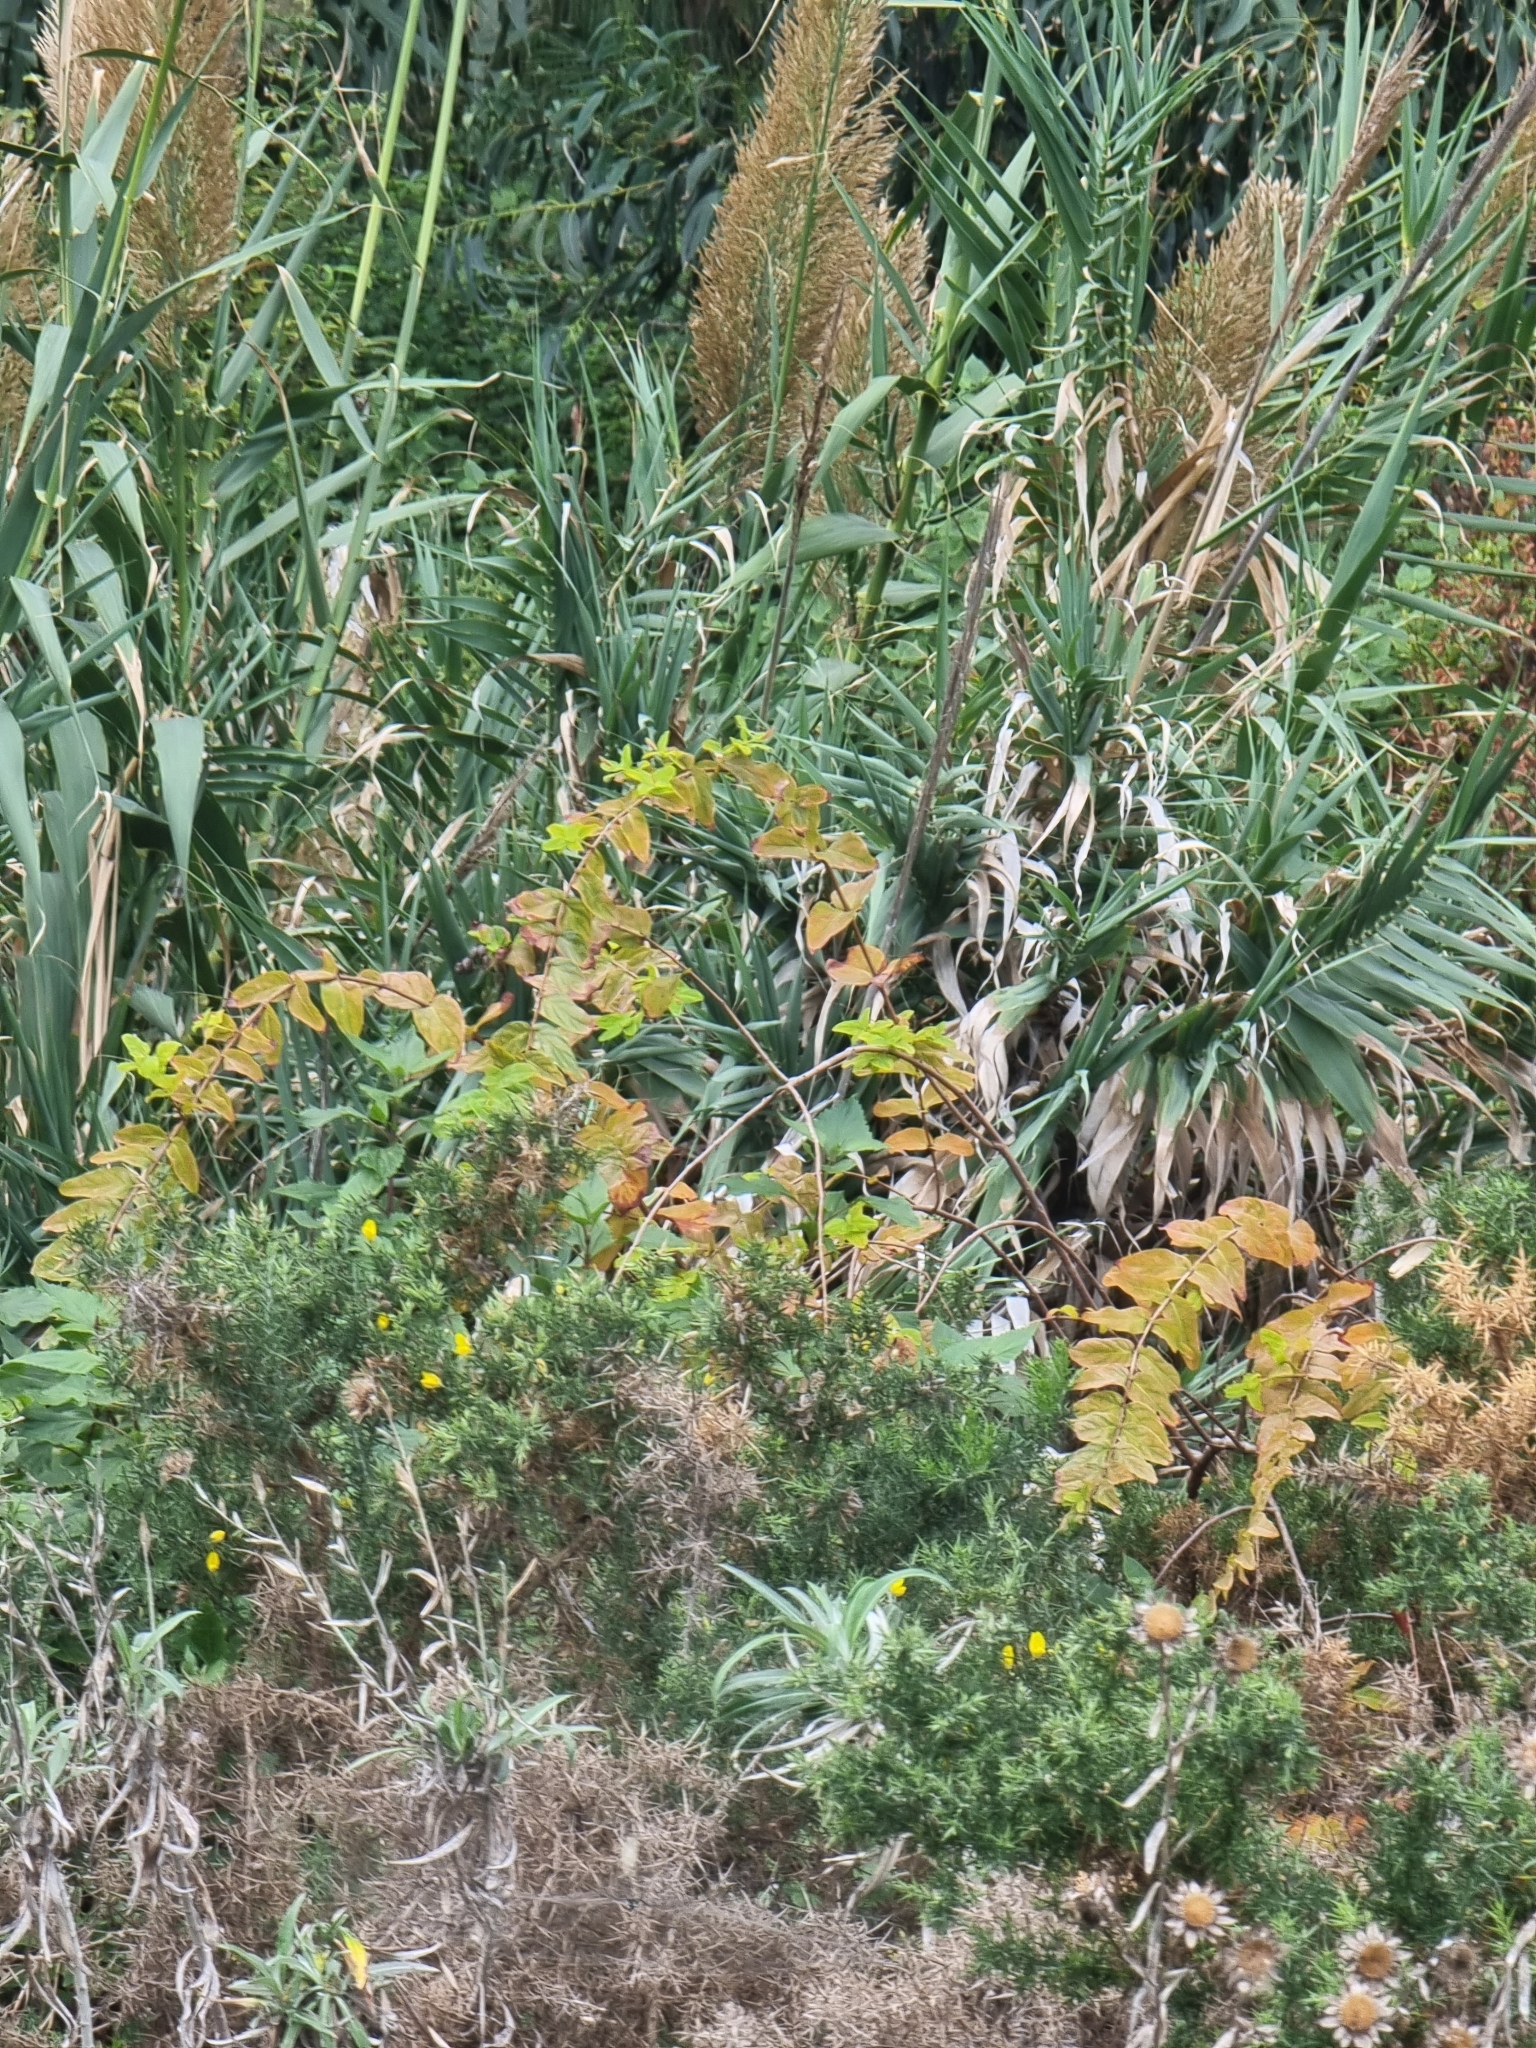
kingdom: Plantae
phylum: Tracheophyta
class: Magnoliopsida
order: Malpighiales
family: Hypericaceae
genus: Hypericum
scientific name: Hypericum grandifolium
